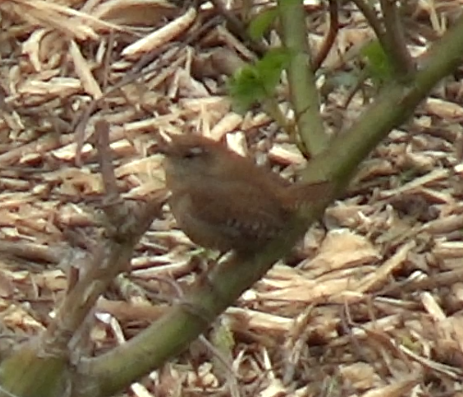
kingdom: Animalia
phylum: Chordata
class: Aves
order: Passeriformes
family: Troglodytidae
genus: Troglodytes
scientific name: Troglodytes troglodytes
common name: Eurasian wren
